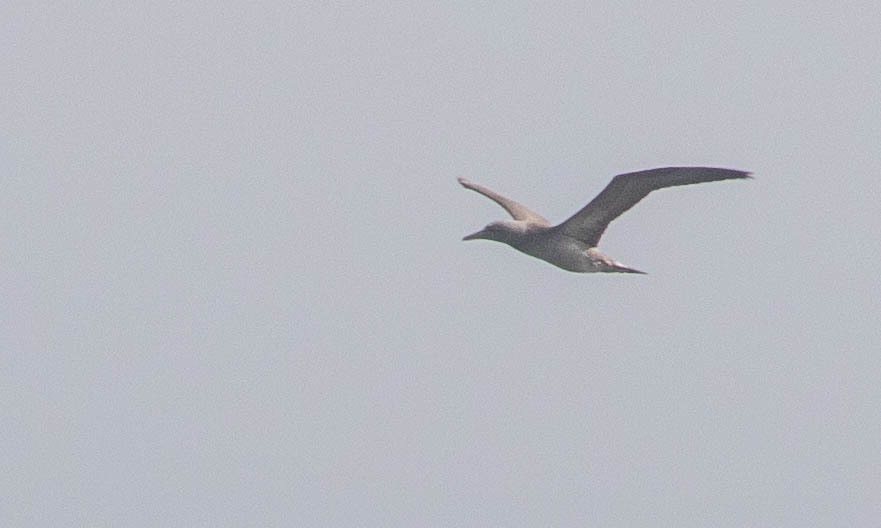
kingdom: Animalia
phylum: Chordata
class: Aves
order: Suliformes
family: Sulidae
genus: Morus
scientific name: Morus bassanus
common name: Northern gannet
